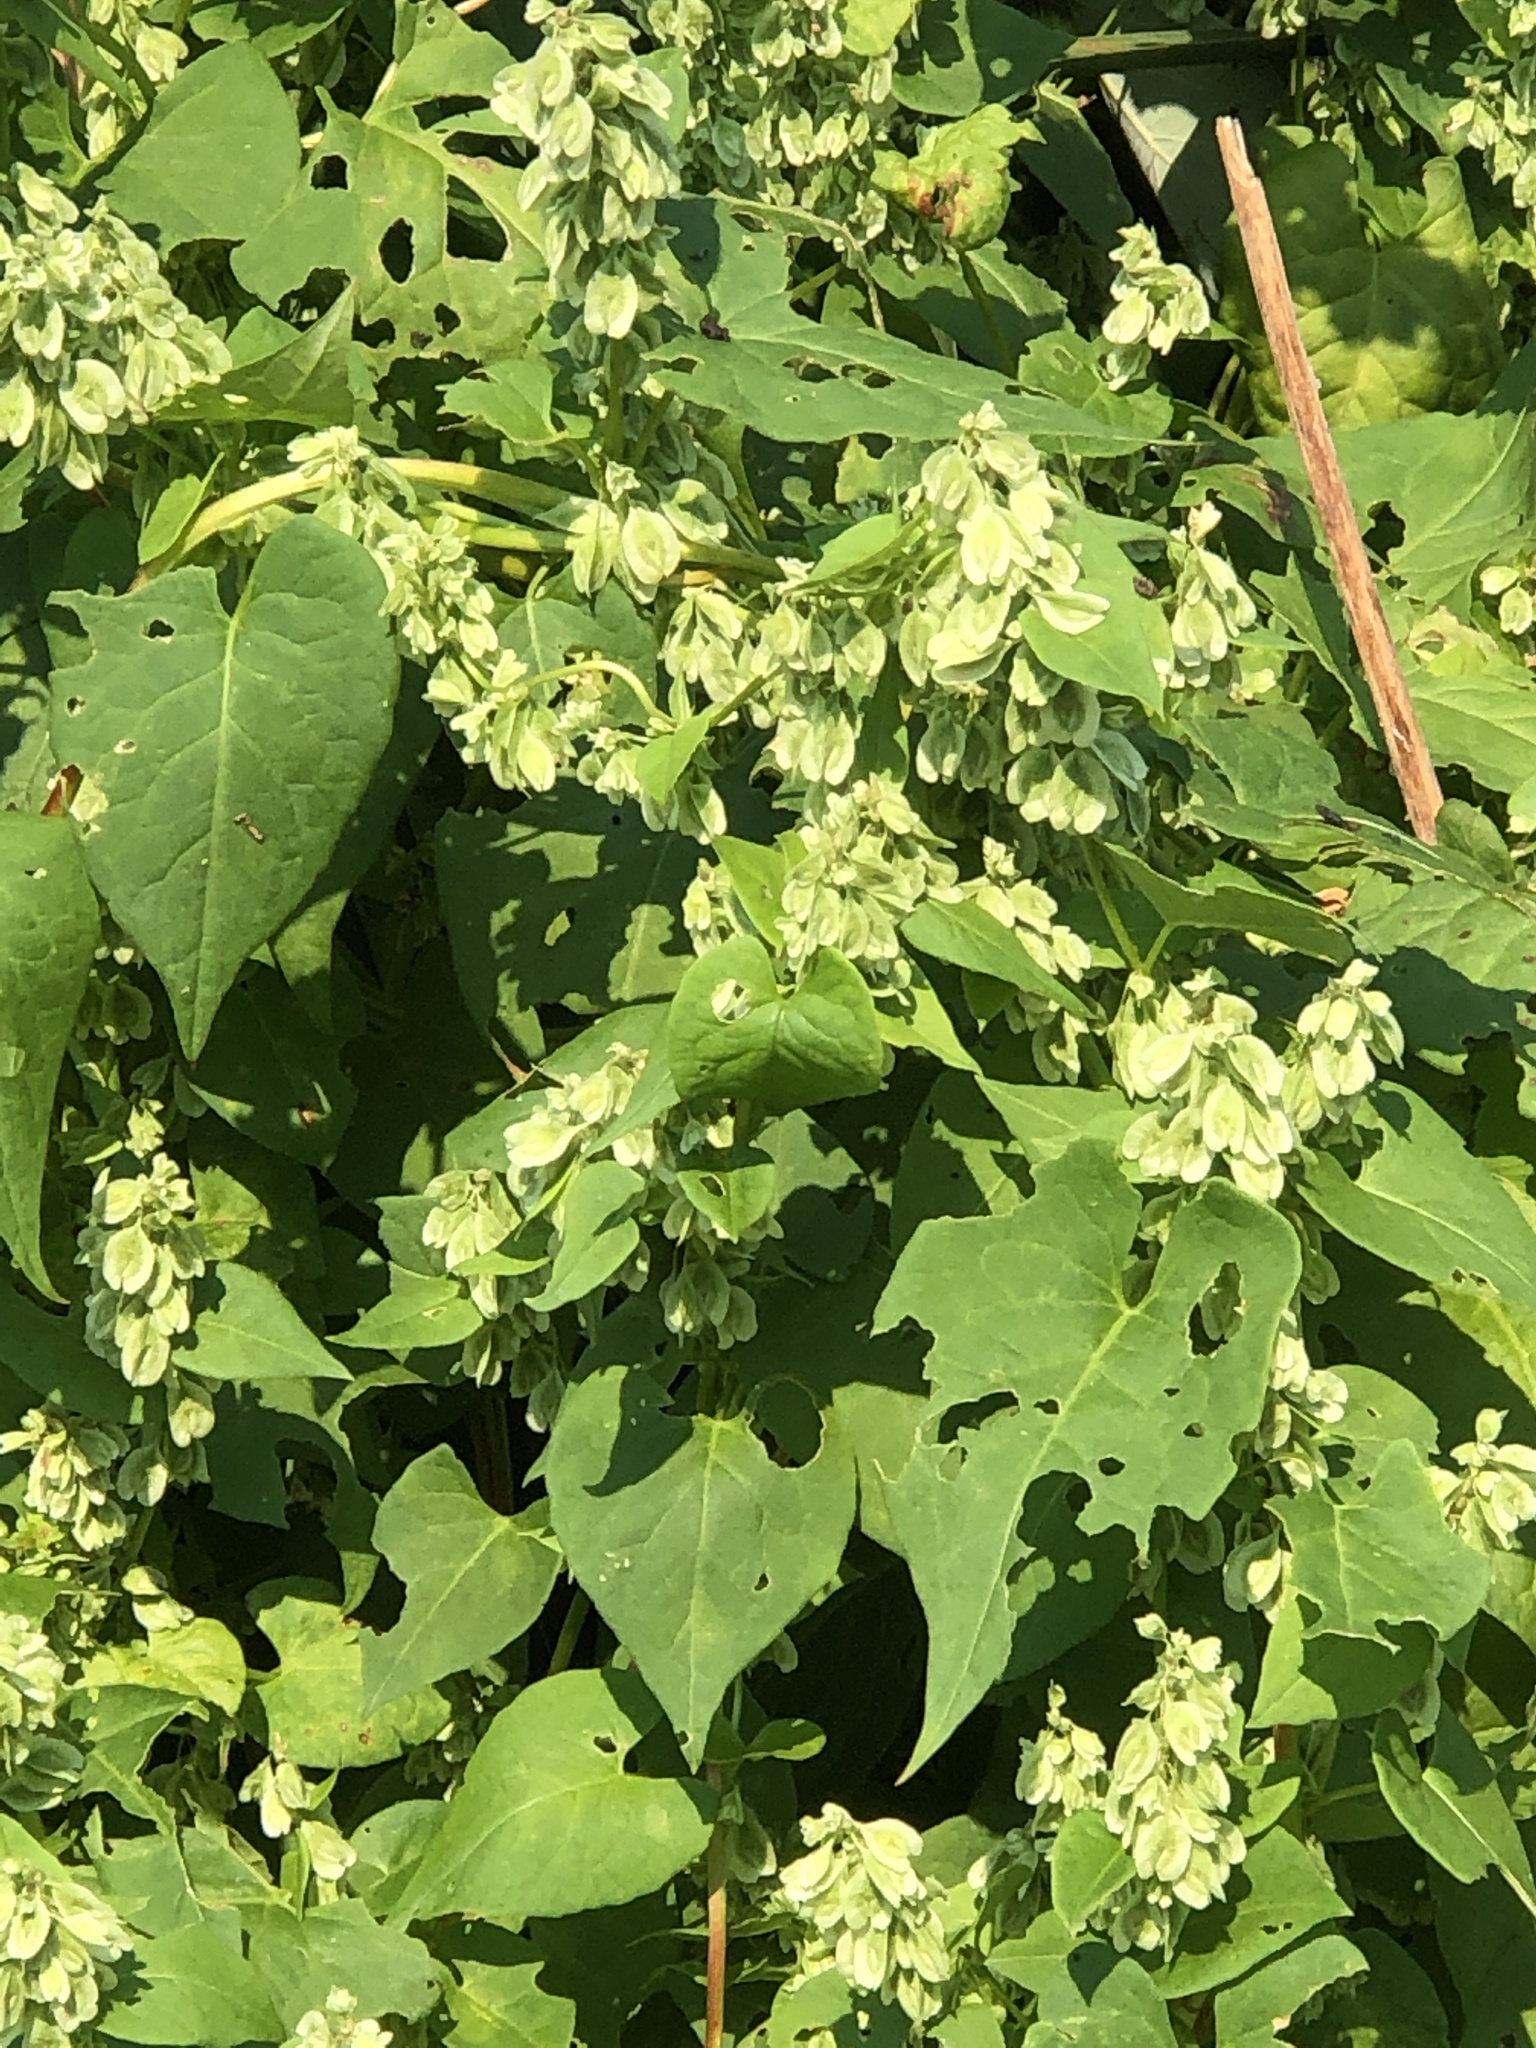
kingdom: Plantae
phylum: Tracheophyta
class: Magnoliopsida
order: Caryophyllales
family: Polygonaceae
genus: Fallopia
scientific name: Fallopia scandens
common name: Climbing false buckwheat
